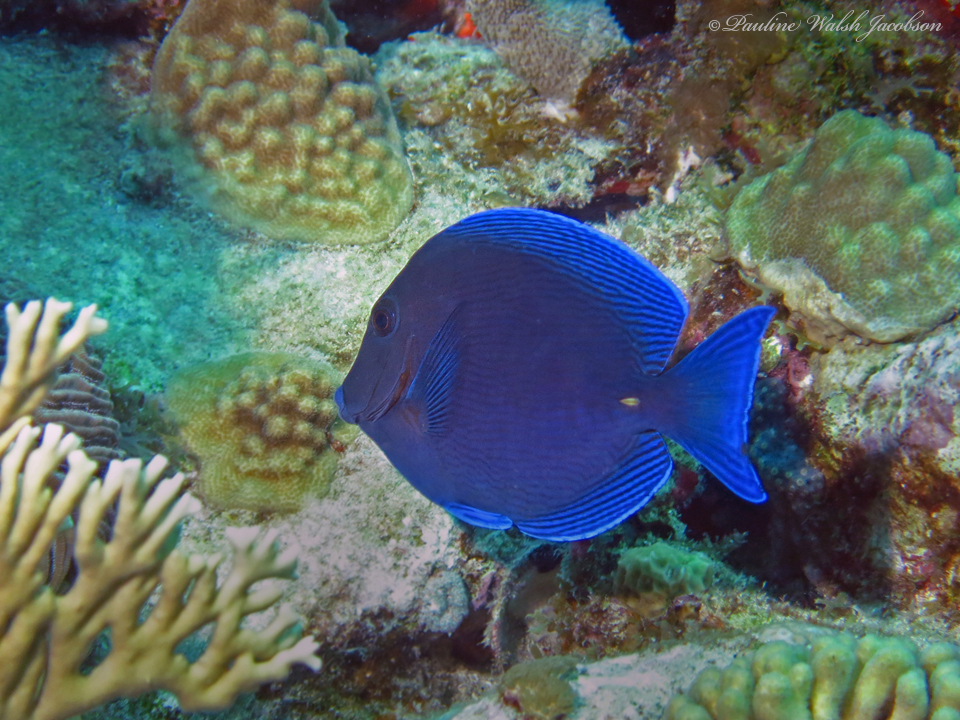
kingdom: Animalia
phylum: Chordata
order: Perciformes
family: Acanthuridae
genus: Acanthurus
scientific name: Acanthurus coeruleus
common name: Blue tang
